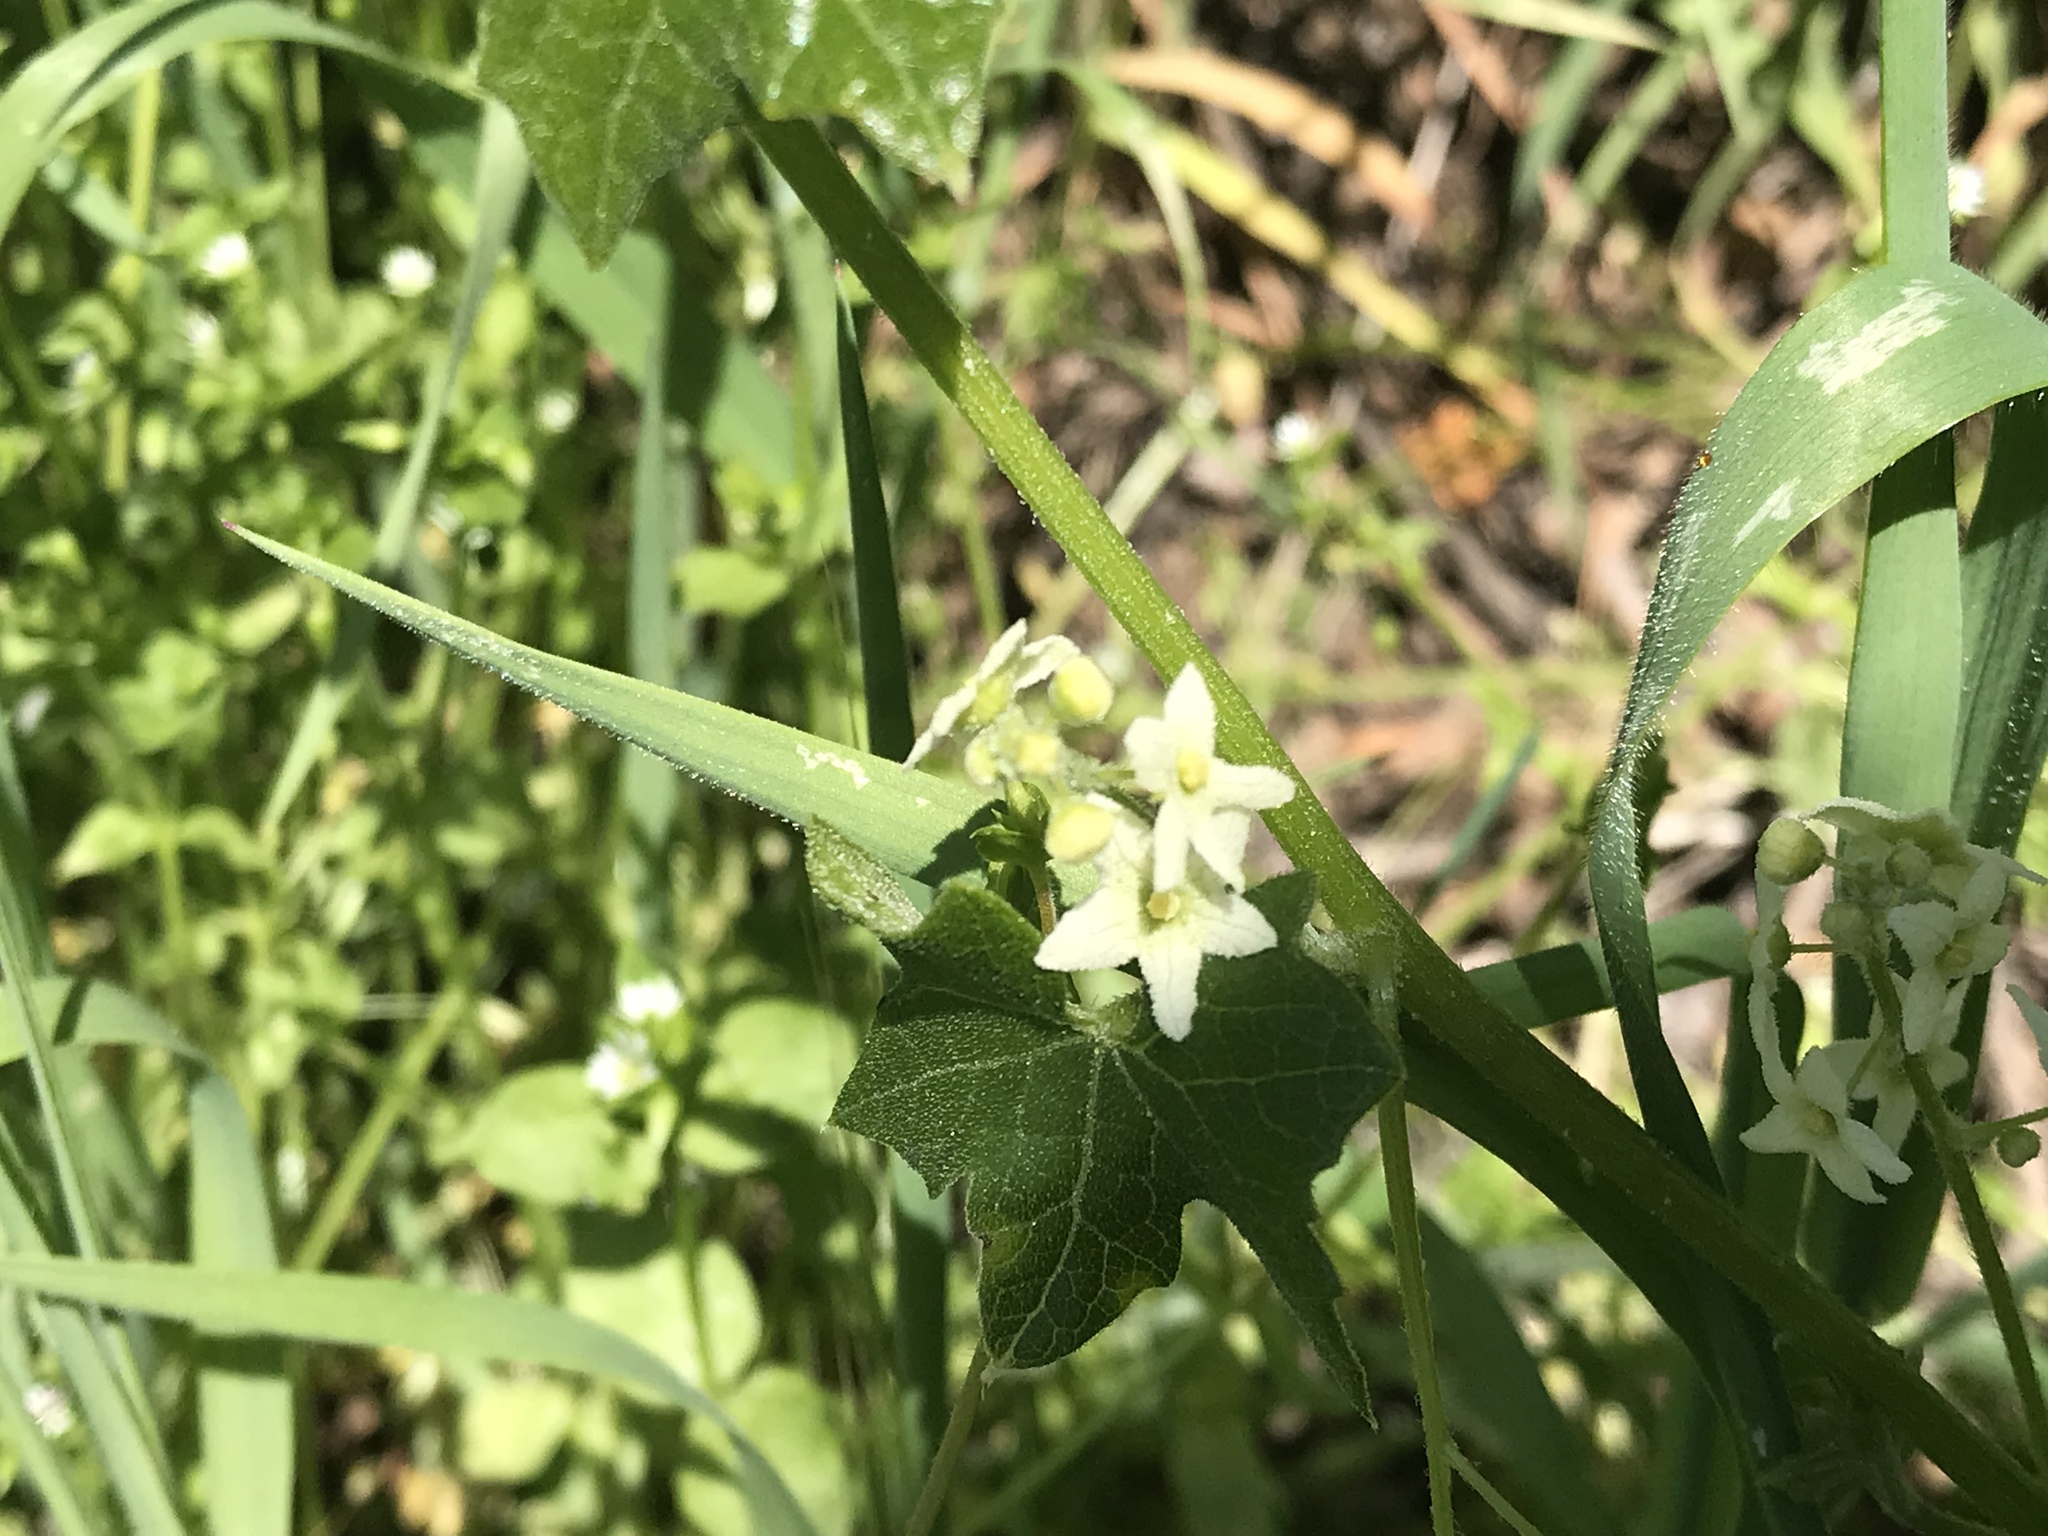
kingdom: Plantae
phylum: Tracheophyta
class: Magnoliopsida
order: Cucurbitales
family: Cucurbitaceae
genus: Marah
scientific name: Marah fabacea
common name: California manroot
